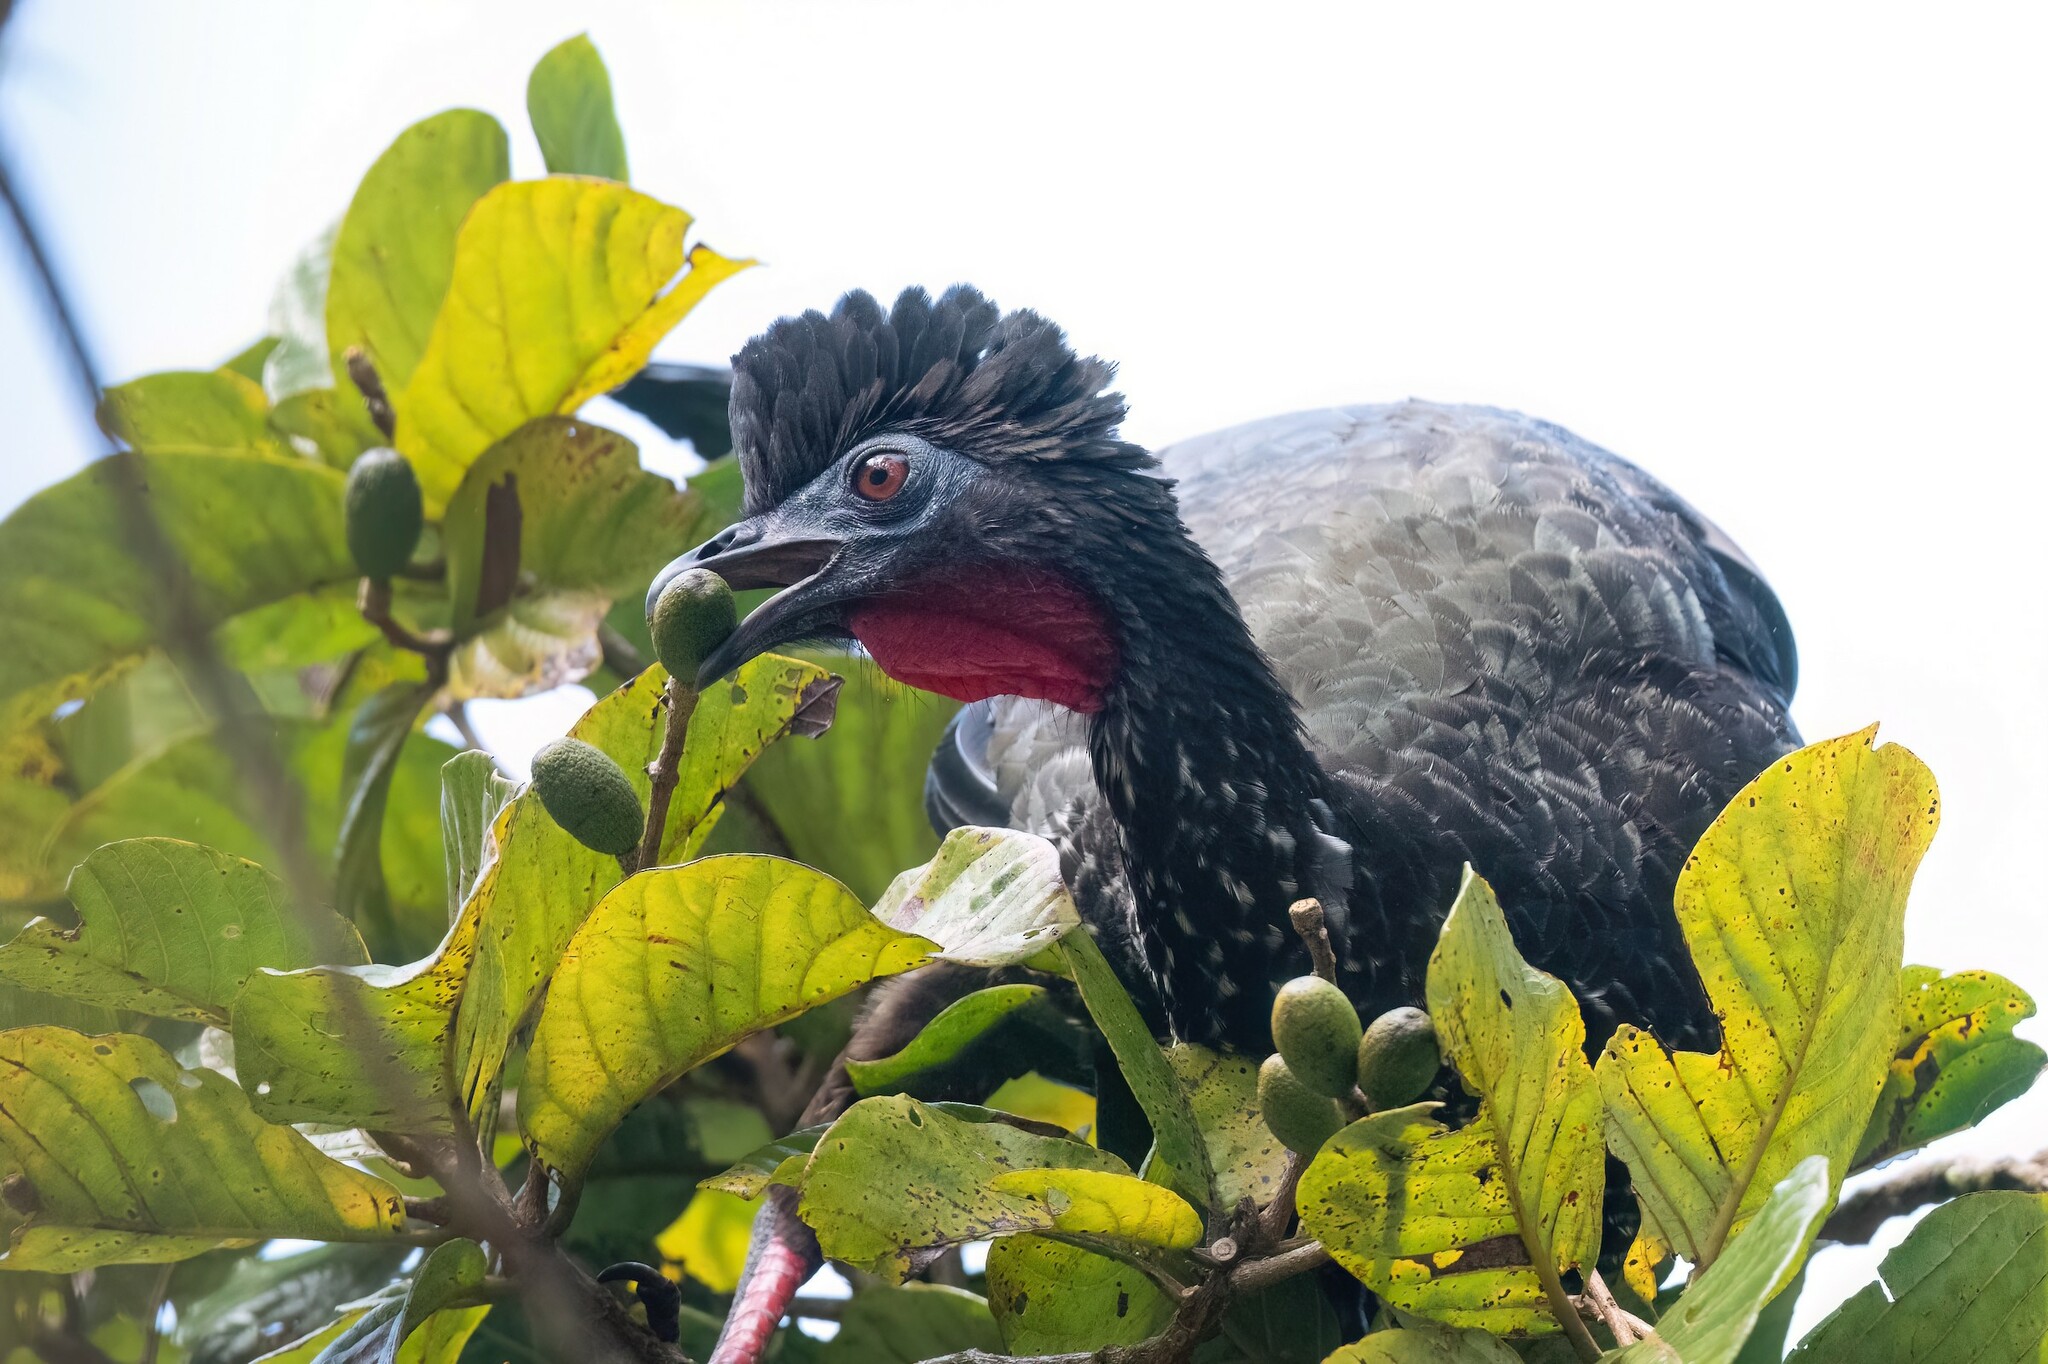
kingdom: Animalia
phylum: Chordata
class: Aves
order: Galliformes
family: Cracidae
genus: Penelope
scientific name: Penelope purpurascens
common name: Crested guan
